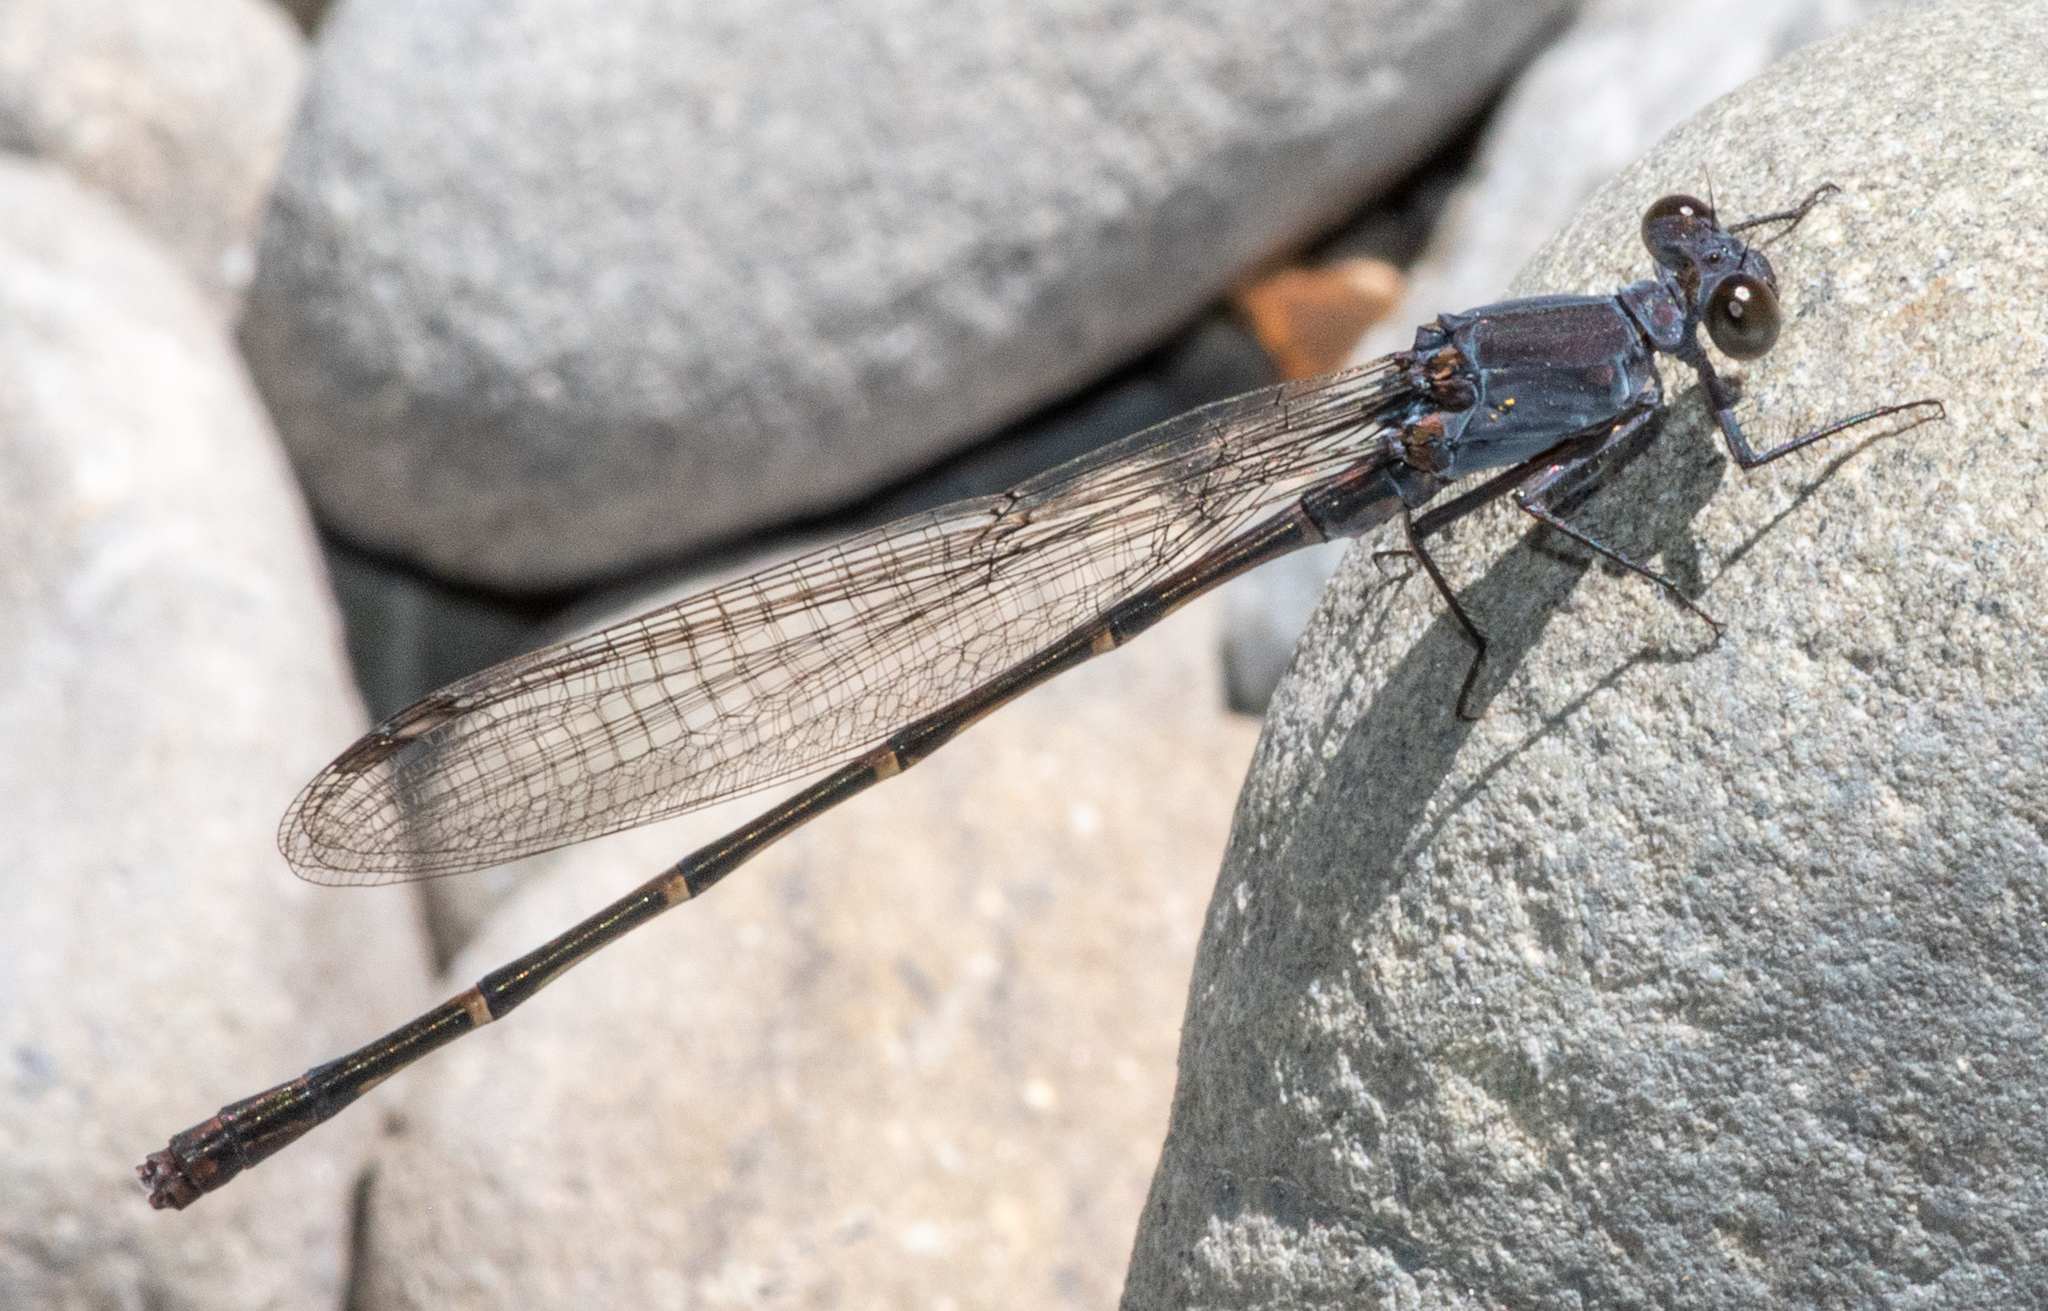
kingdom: Animalia
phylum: Arthropoda
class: Insecta
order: Odonata
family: Coenagrionidae
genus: Argia
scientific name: Argia lugens
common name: Sooty dancer
